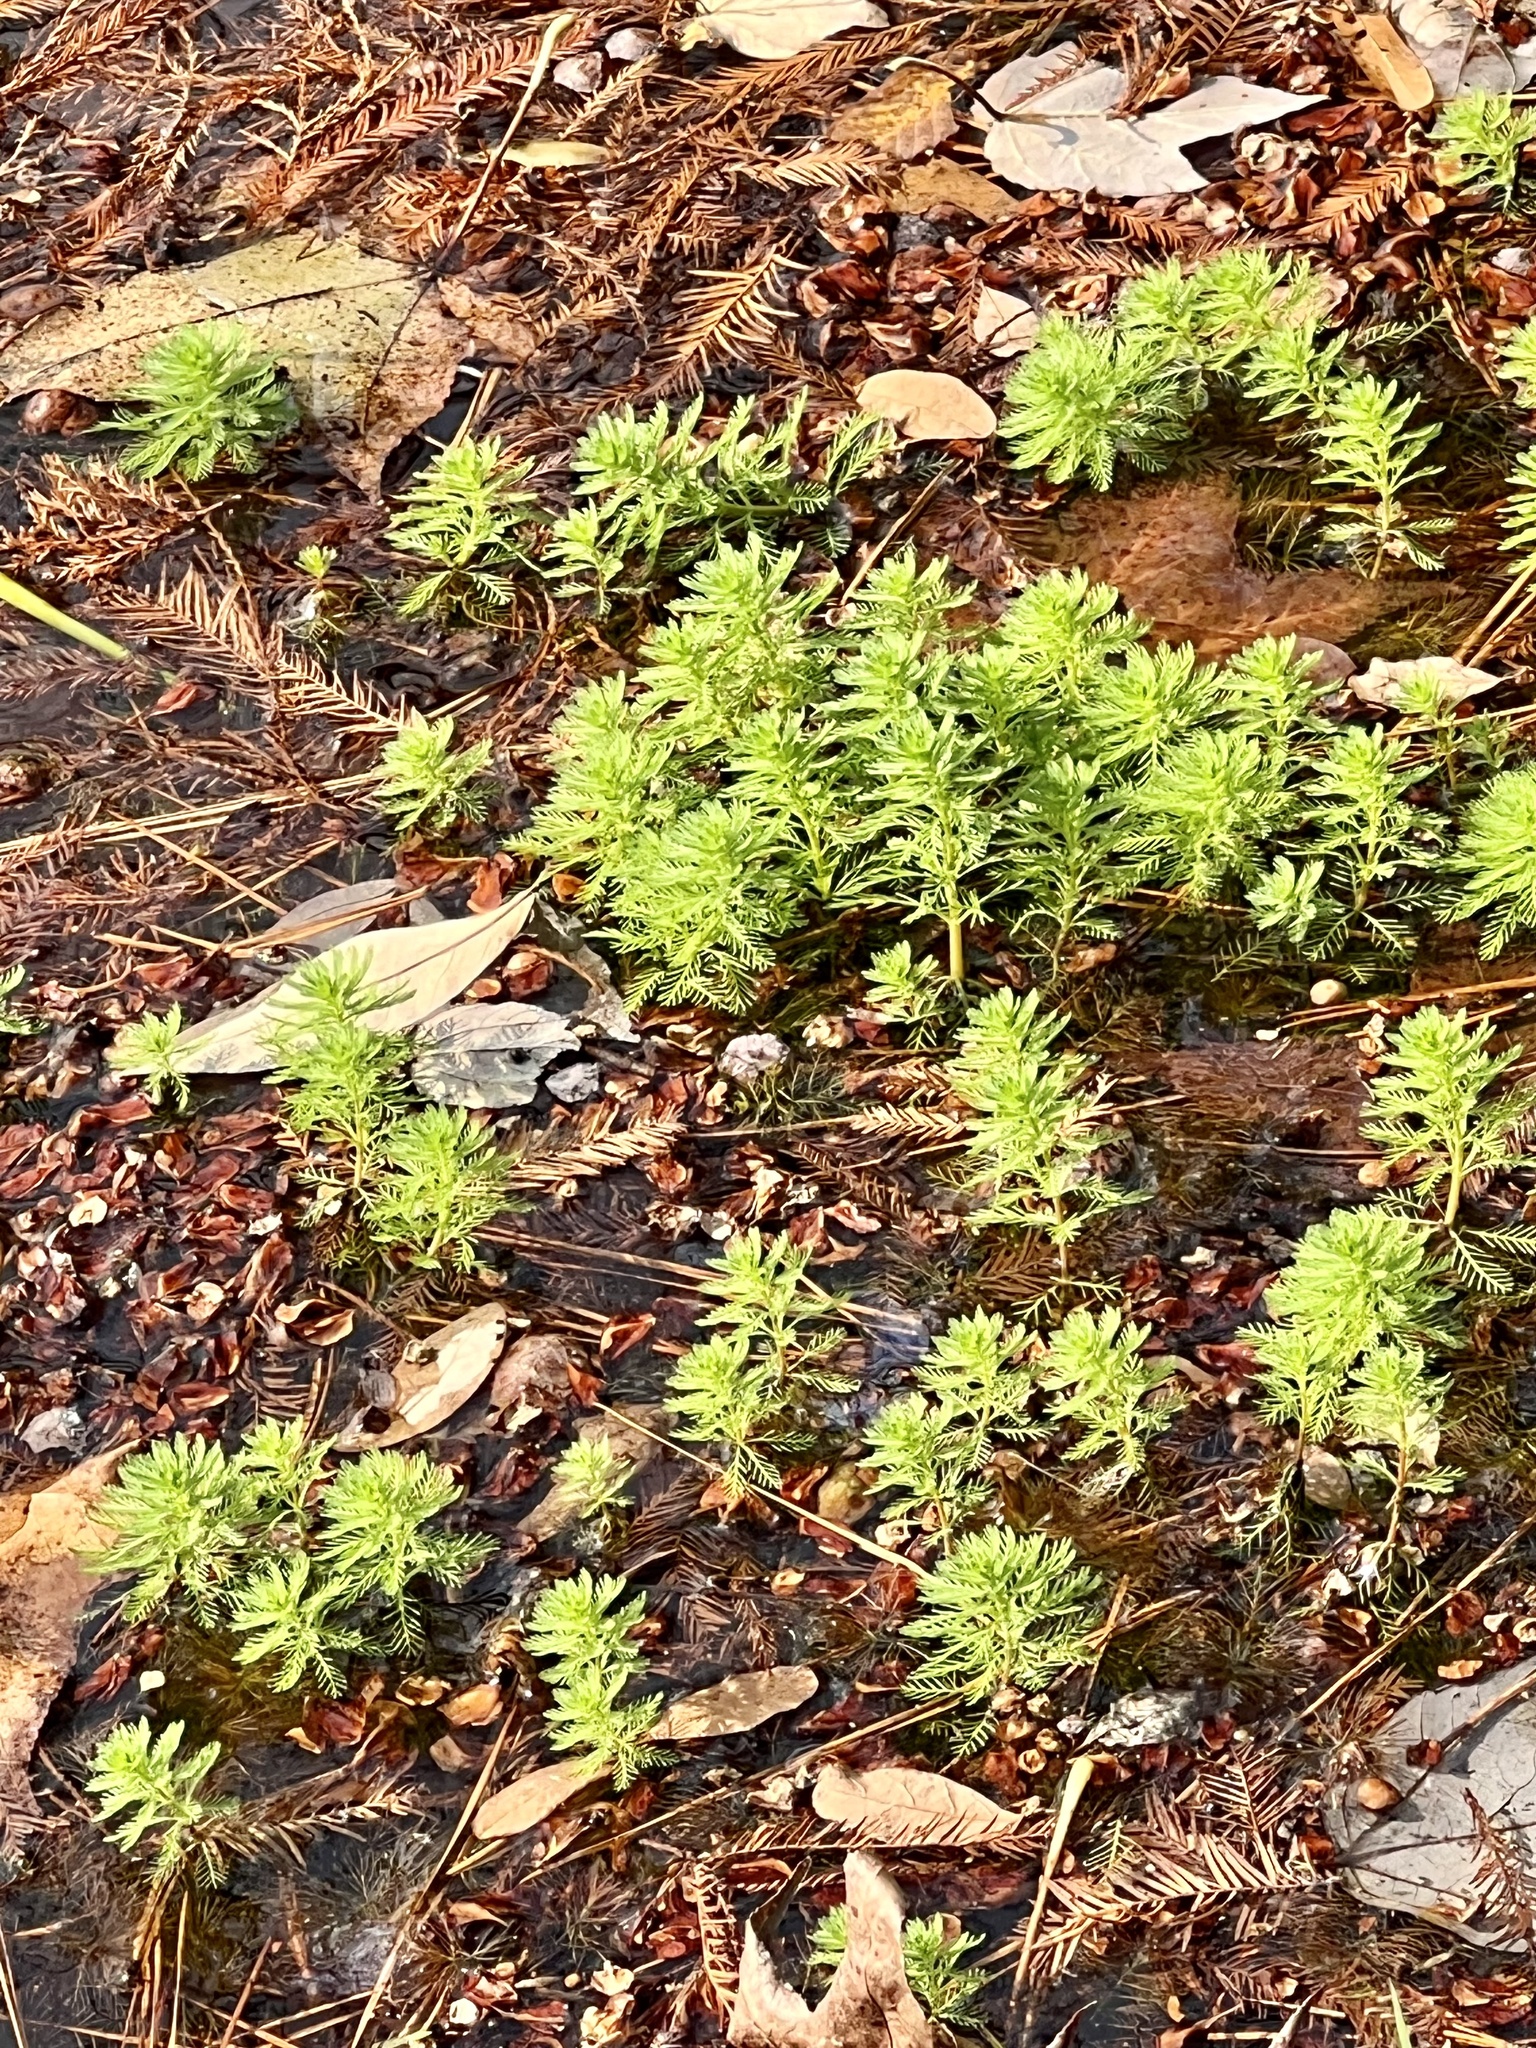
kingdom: Plantae
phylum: Tracheophyta
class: Magnoliopsida
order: Saxifragales
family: Haloragaceae
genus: Myriophyllum
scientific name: Myriophyllum aquaticum
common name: Parrot's feather
